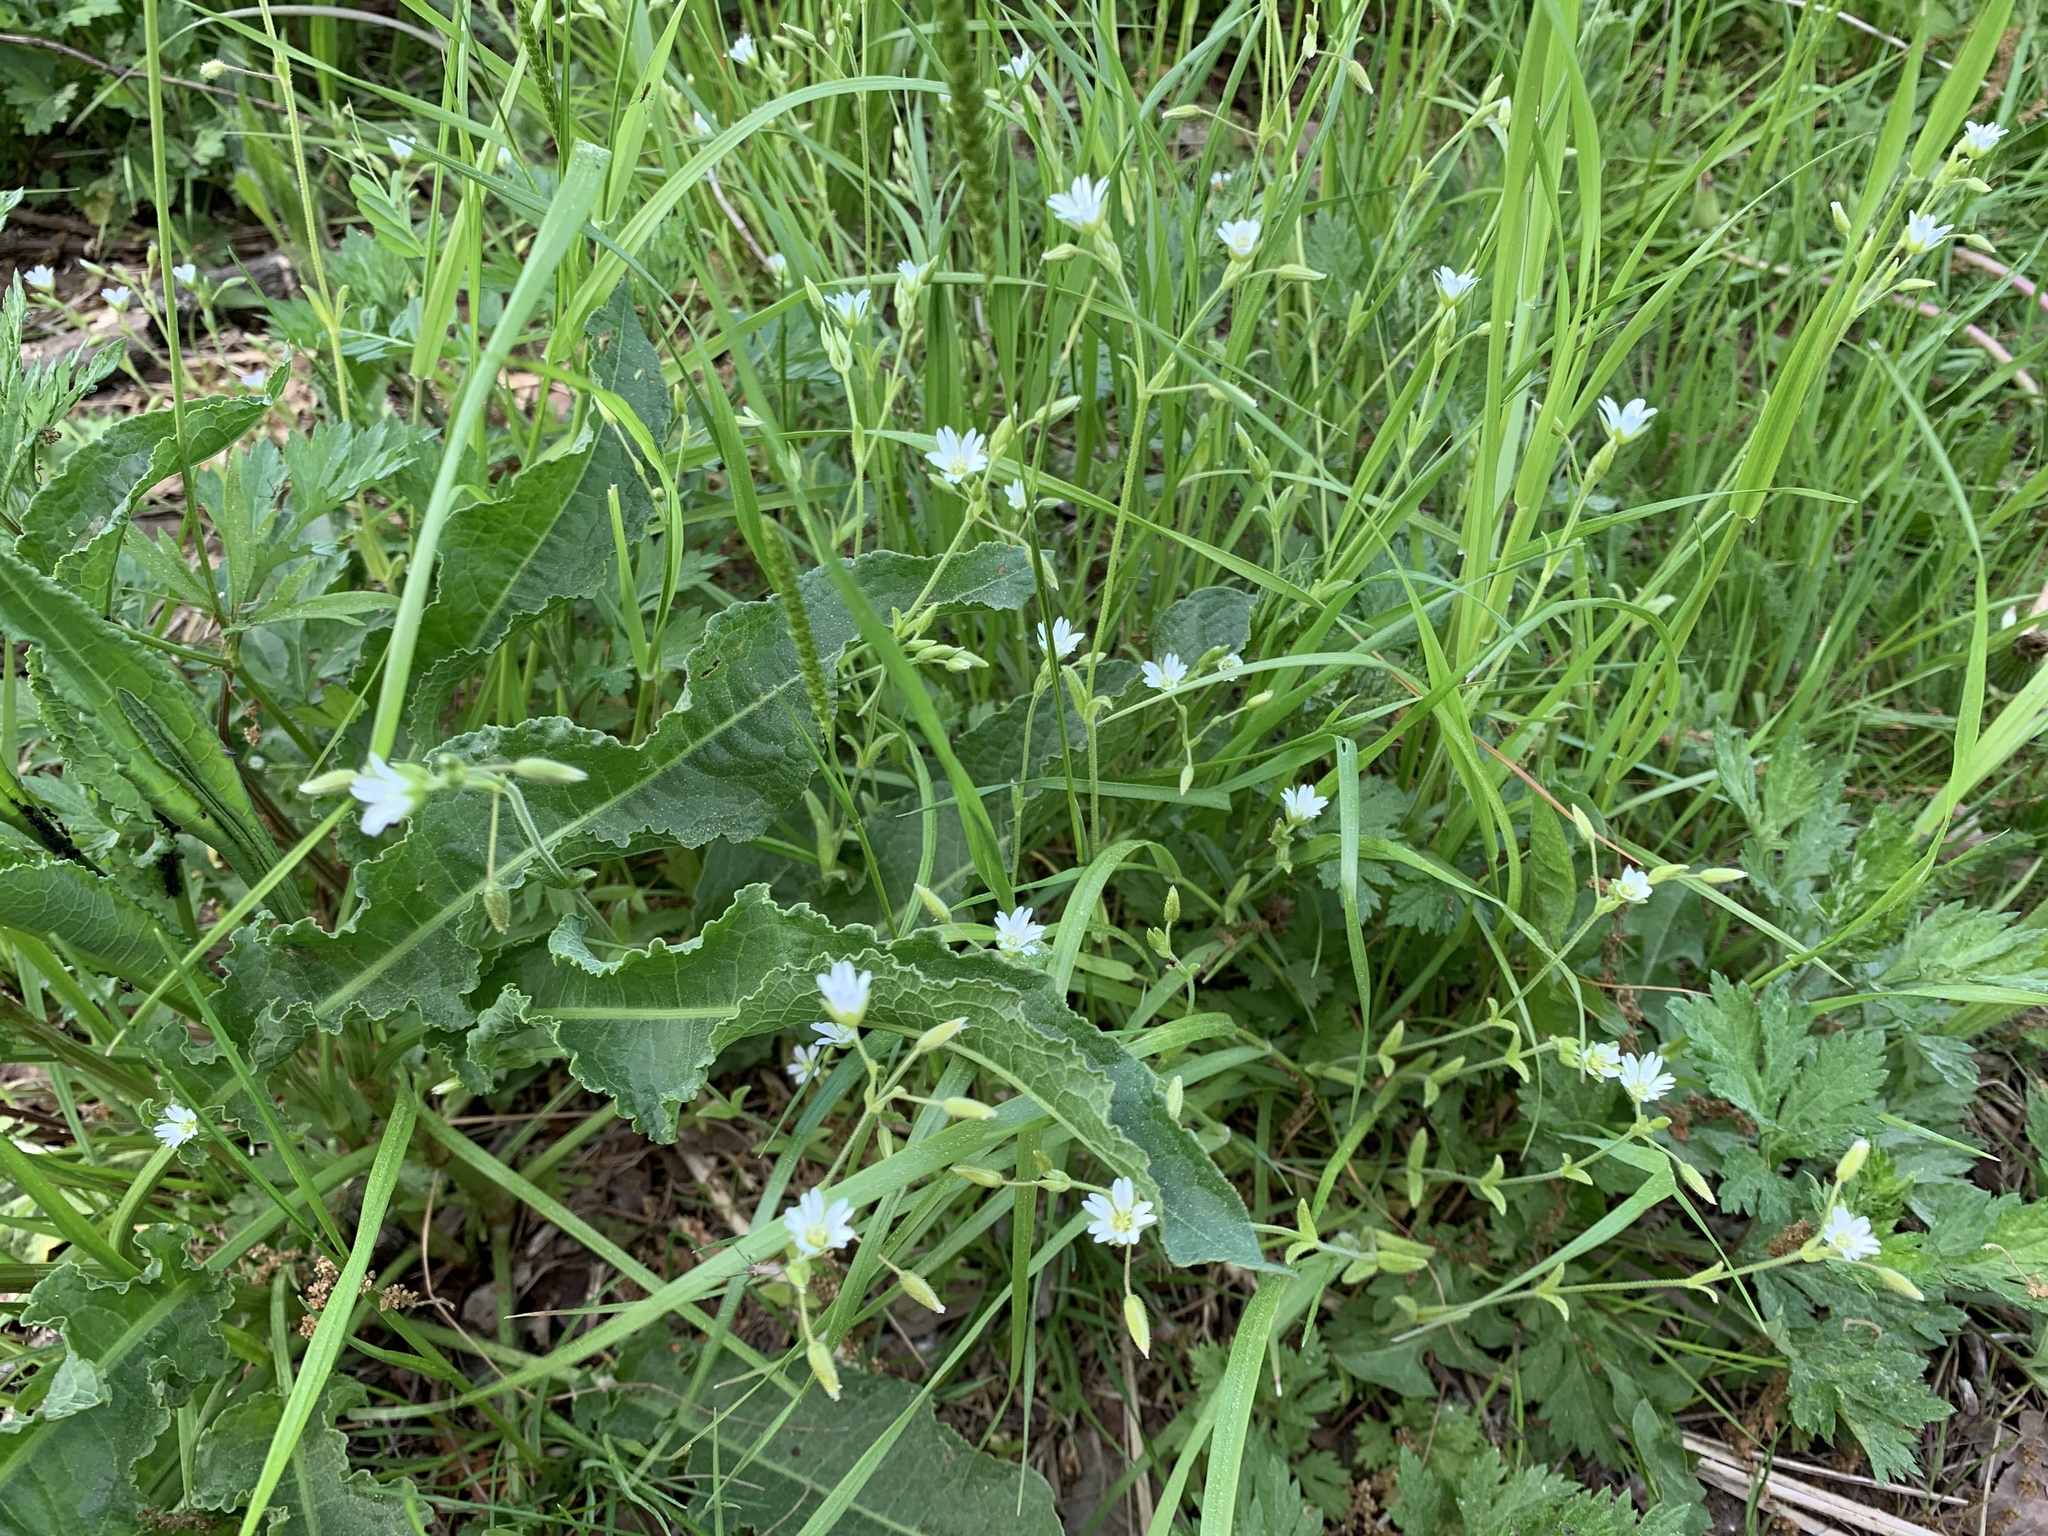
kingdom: Plantae
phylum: Tracheophyta
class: Magnoliopsida
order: Caryophyllales
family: Caryophyllaceae
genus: Cerastium
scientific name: Cerastium holosteoides
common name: Big chickweed
